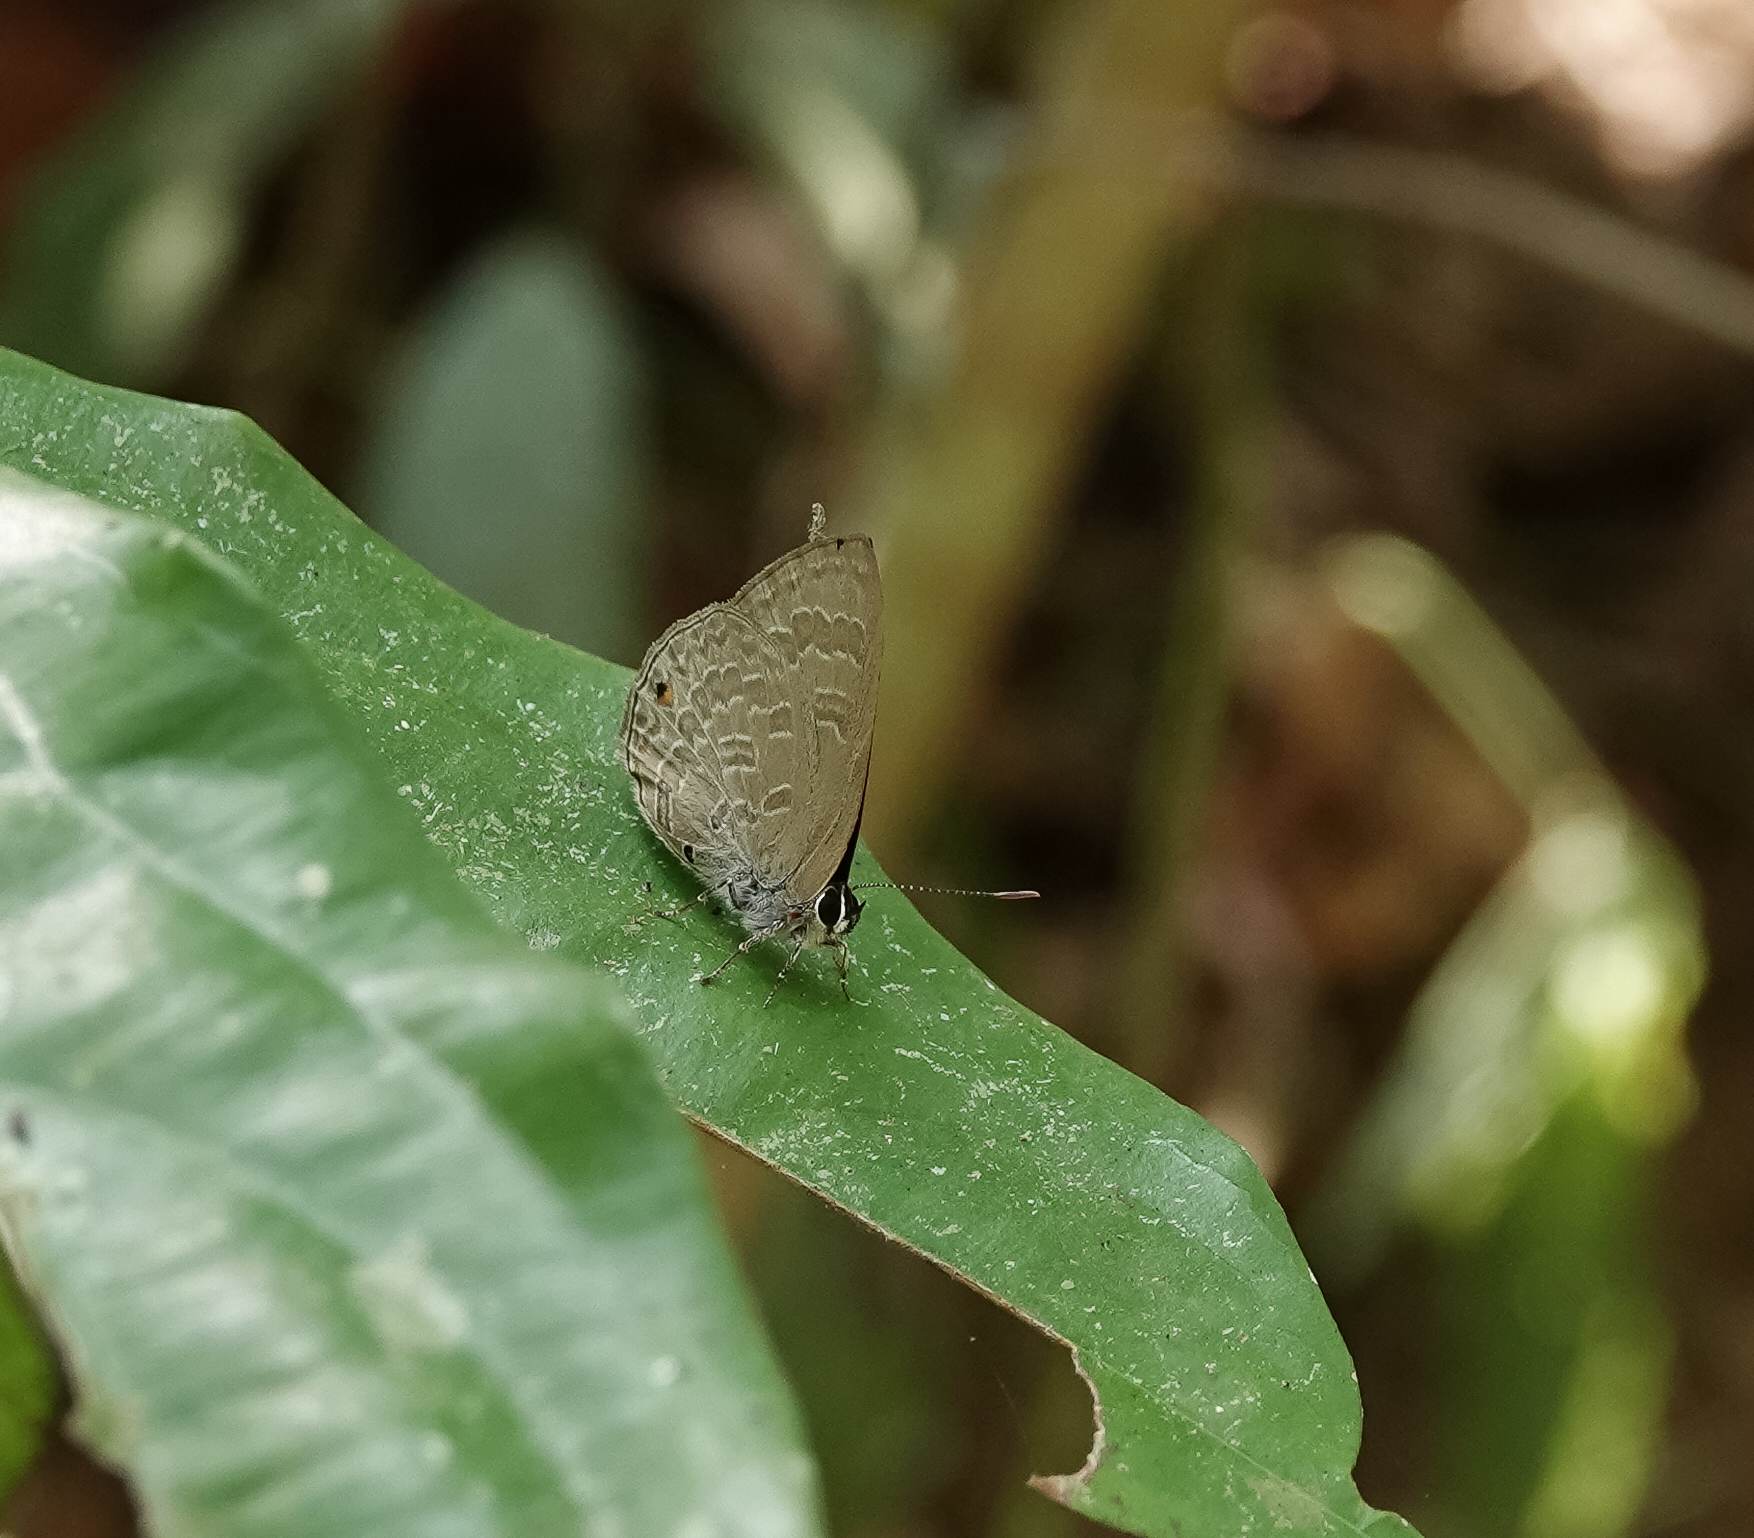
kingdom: Animalia
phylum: Arthropoda
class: Insecta
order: Lepidoptera
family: Lycaenidae
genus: Anthene
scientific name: Anthene emolus
